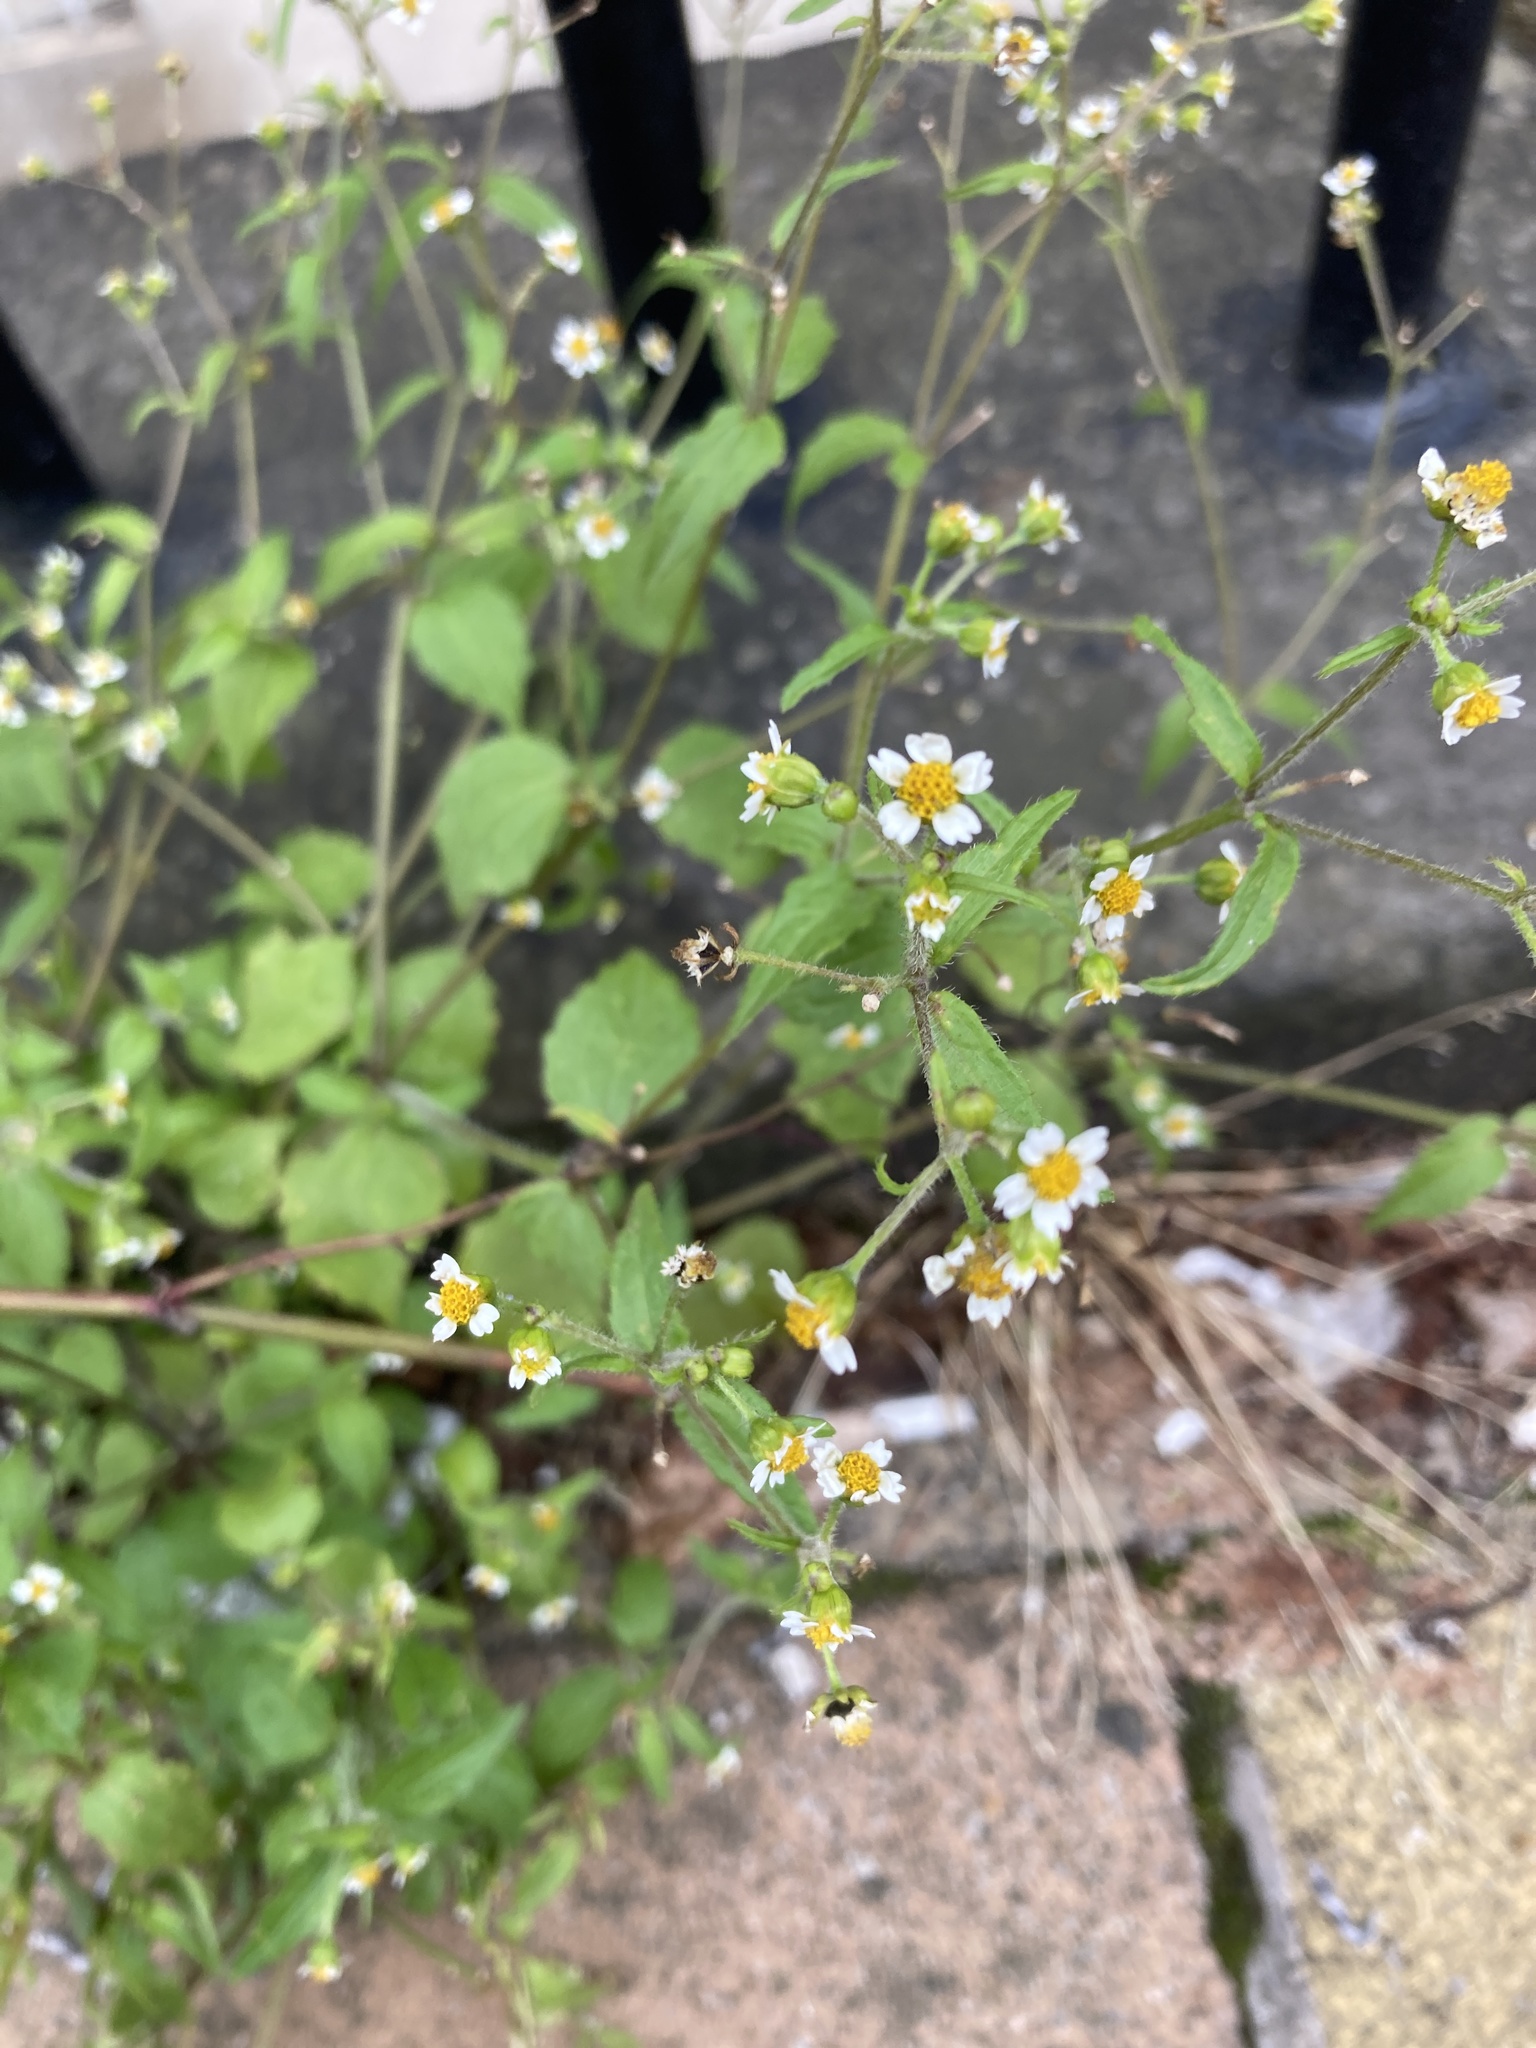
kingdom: Plantae
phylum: Tracheophyta
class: Magnoliopsida
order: Asterales
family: Asteraceae
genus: Galinsoga
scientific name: Galinsoga quadriradiata
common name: Shaggy soldier
